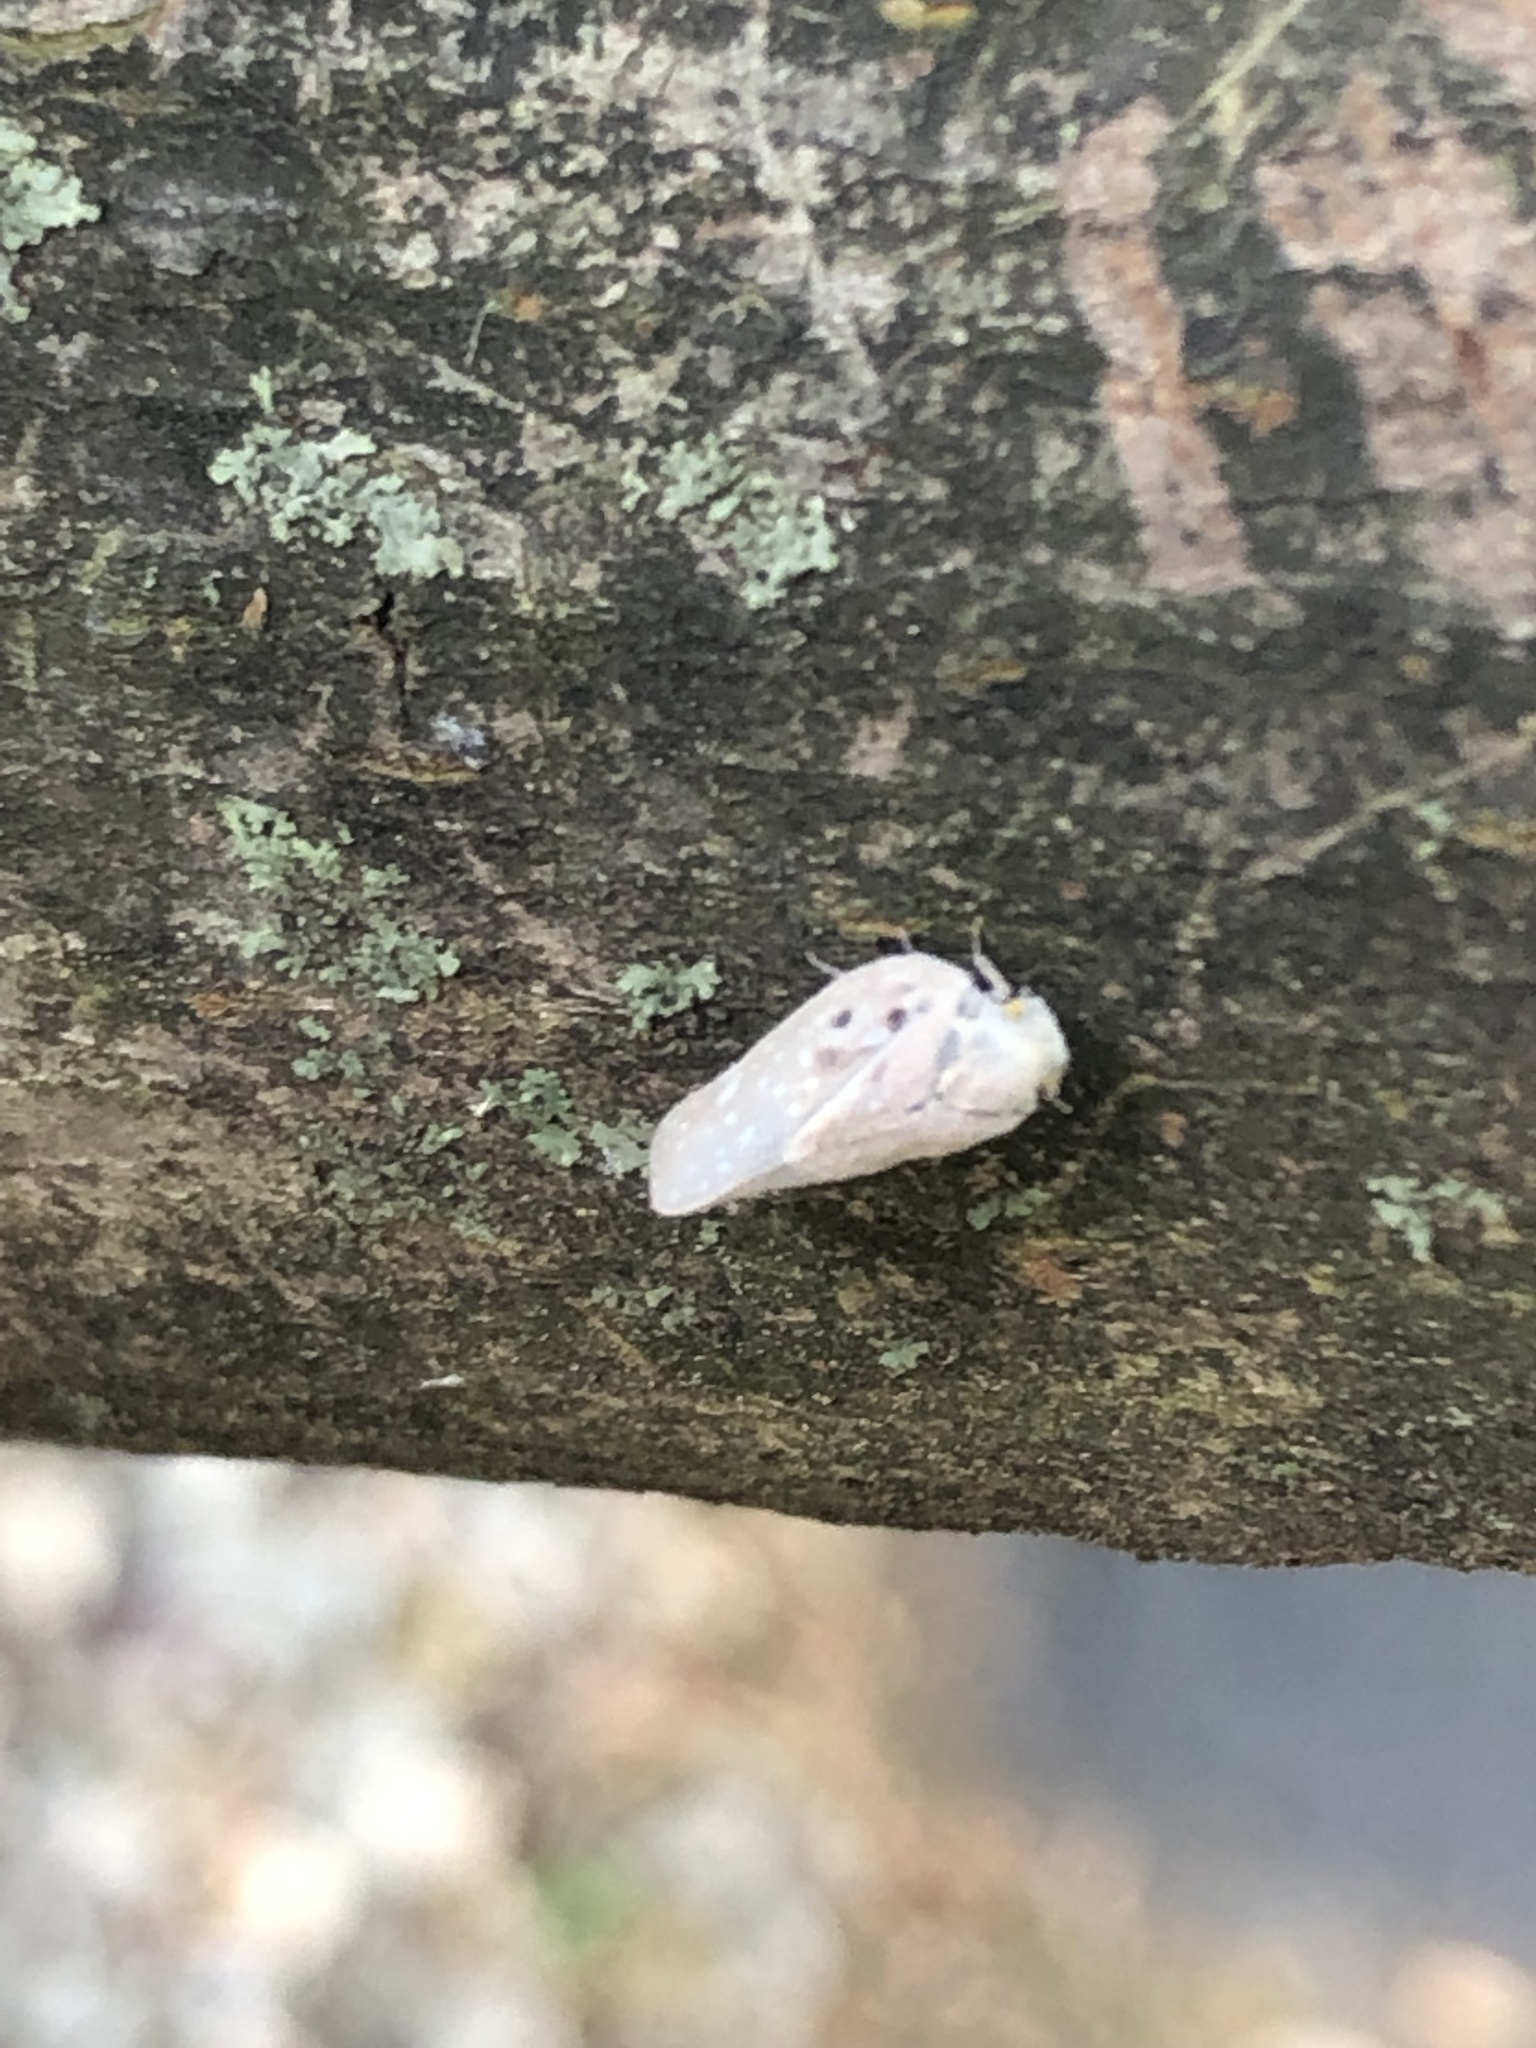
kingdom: Animalia
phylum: Arthropoda
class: Insecta
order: Hemiptera
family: Flatidae
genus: Metcalfa
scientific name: Metcalfa pruinosa
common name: Citrus flatid planthopper
